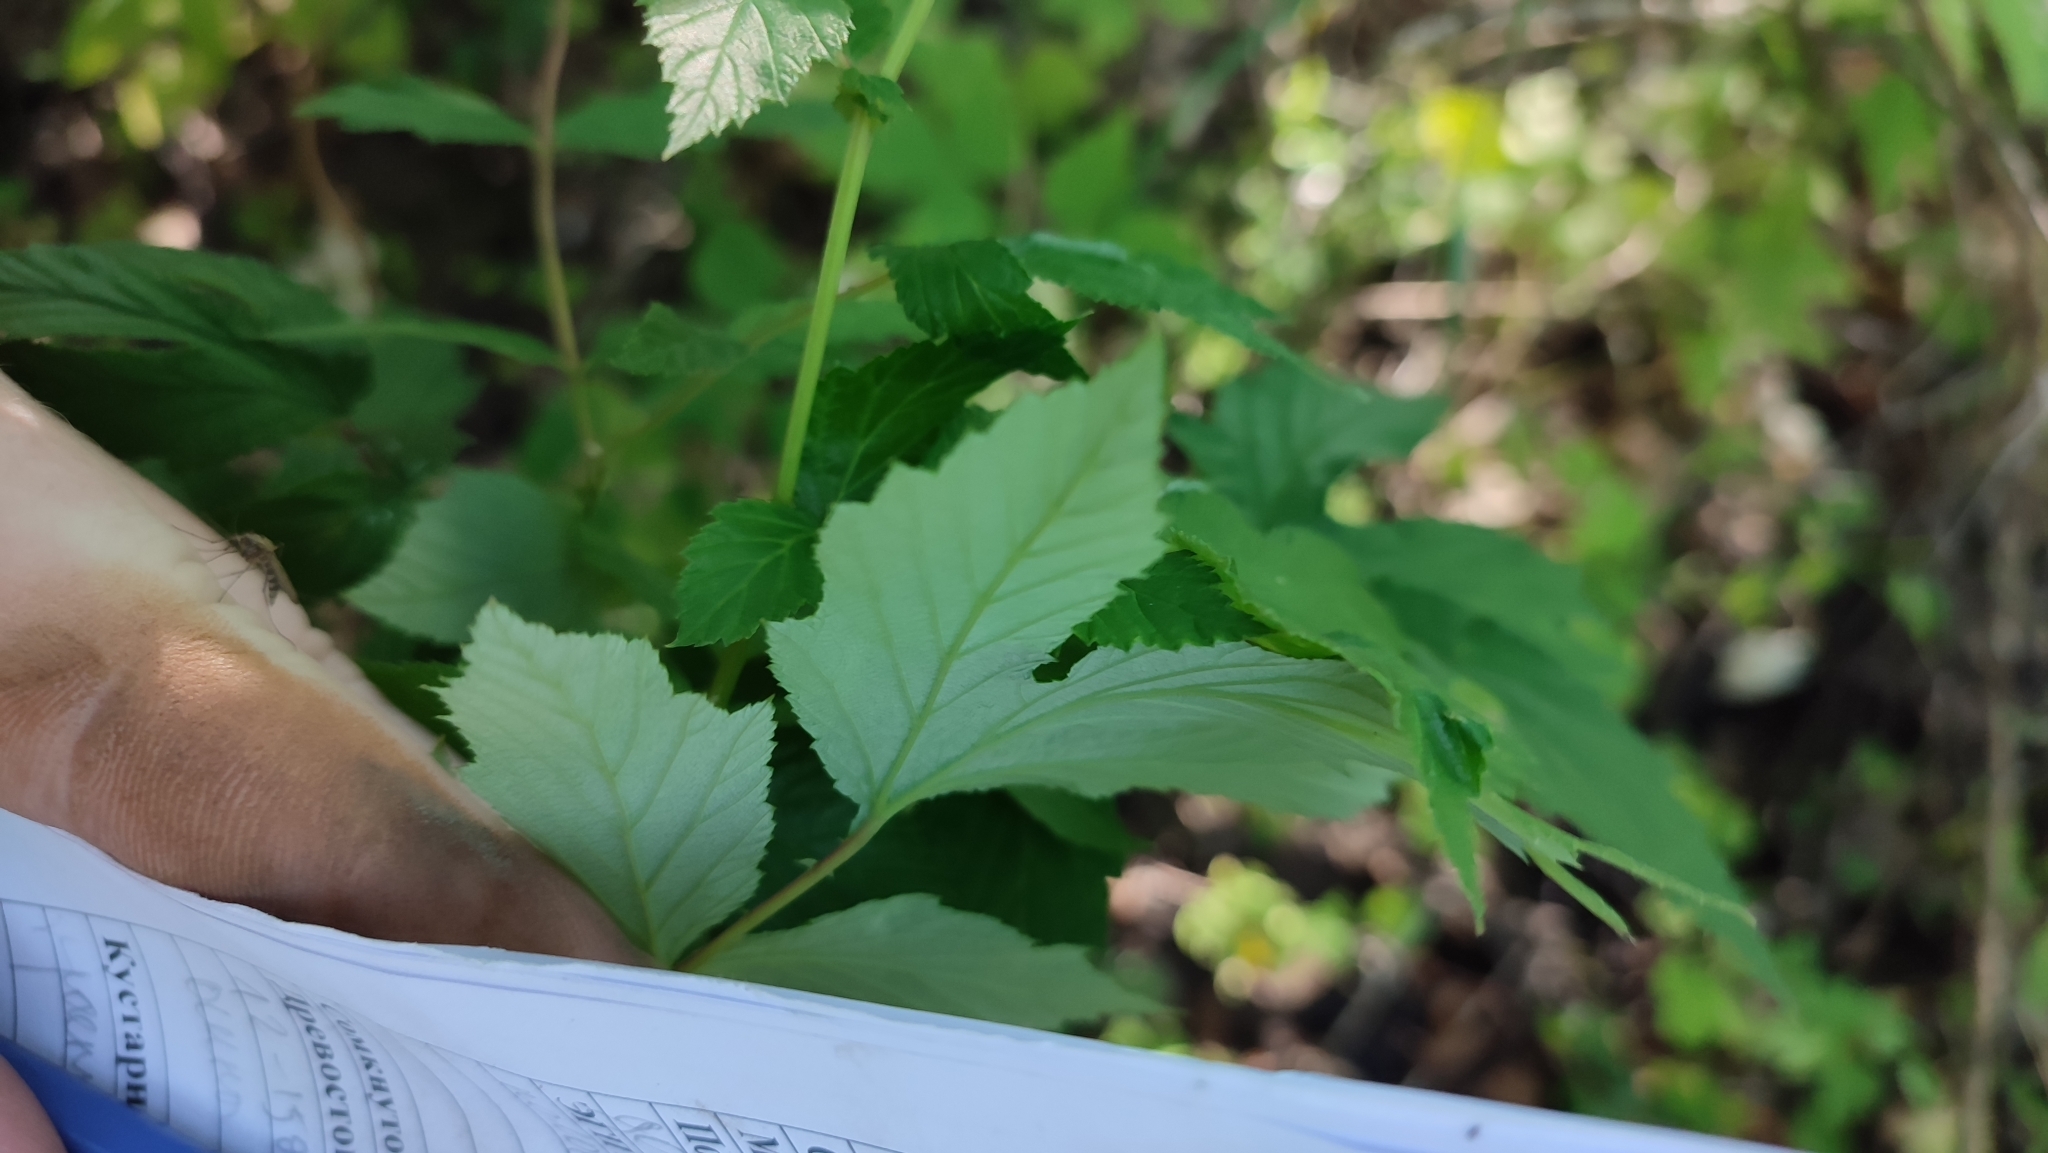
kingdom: Plantae
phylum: Tracheophyta
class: Magnoliopsida
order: Rosales
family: Rosaceae
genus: Filipendula
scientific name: Filipendula ulmaria
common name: Meadowsweet
